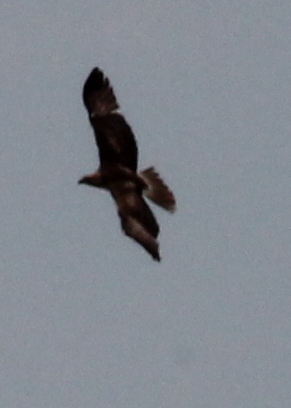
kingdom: Animalia
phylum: Chordata
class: Aves
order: Accipitriformes
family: Accipitridae
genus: Haliaeetus
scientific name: Haliaeetus leucocephalus
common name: Bald eagle
